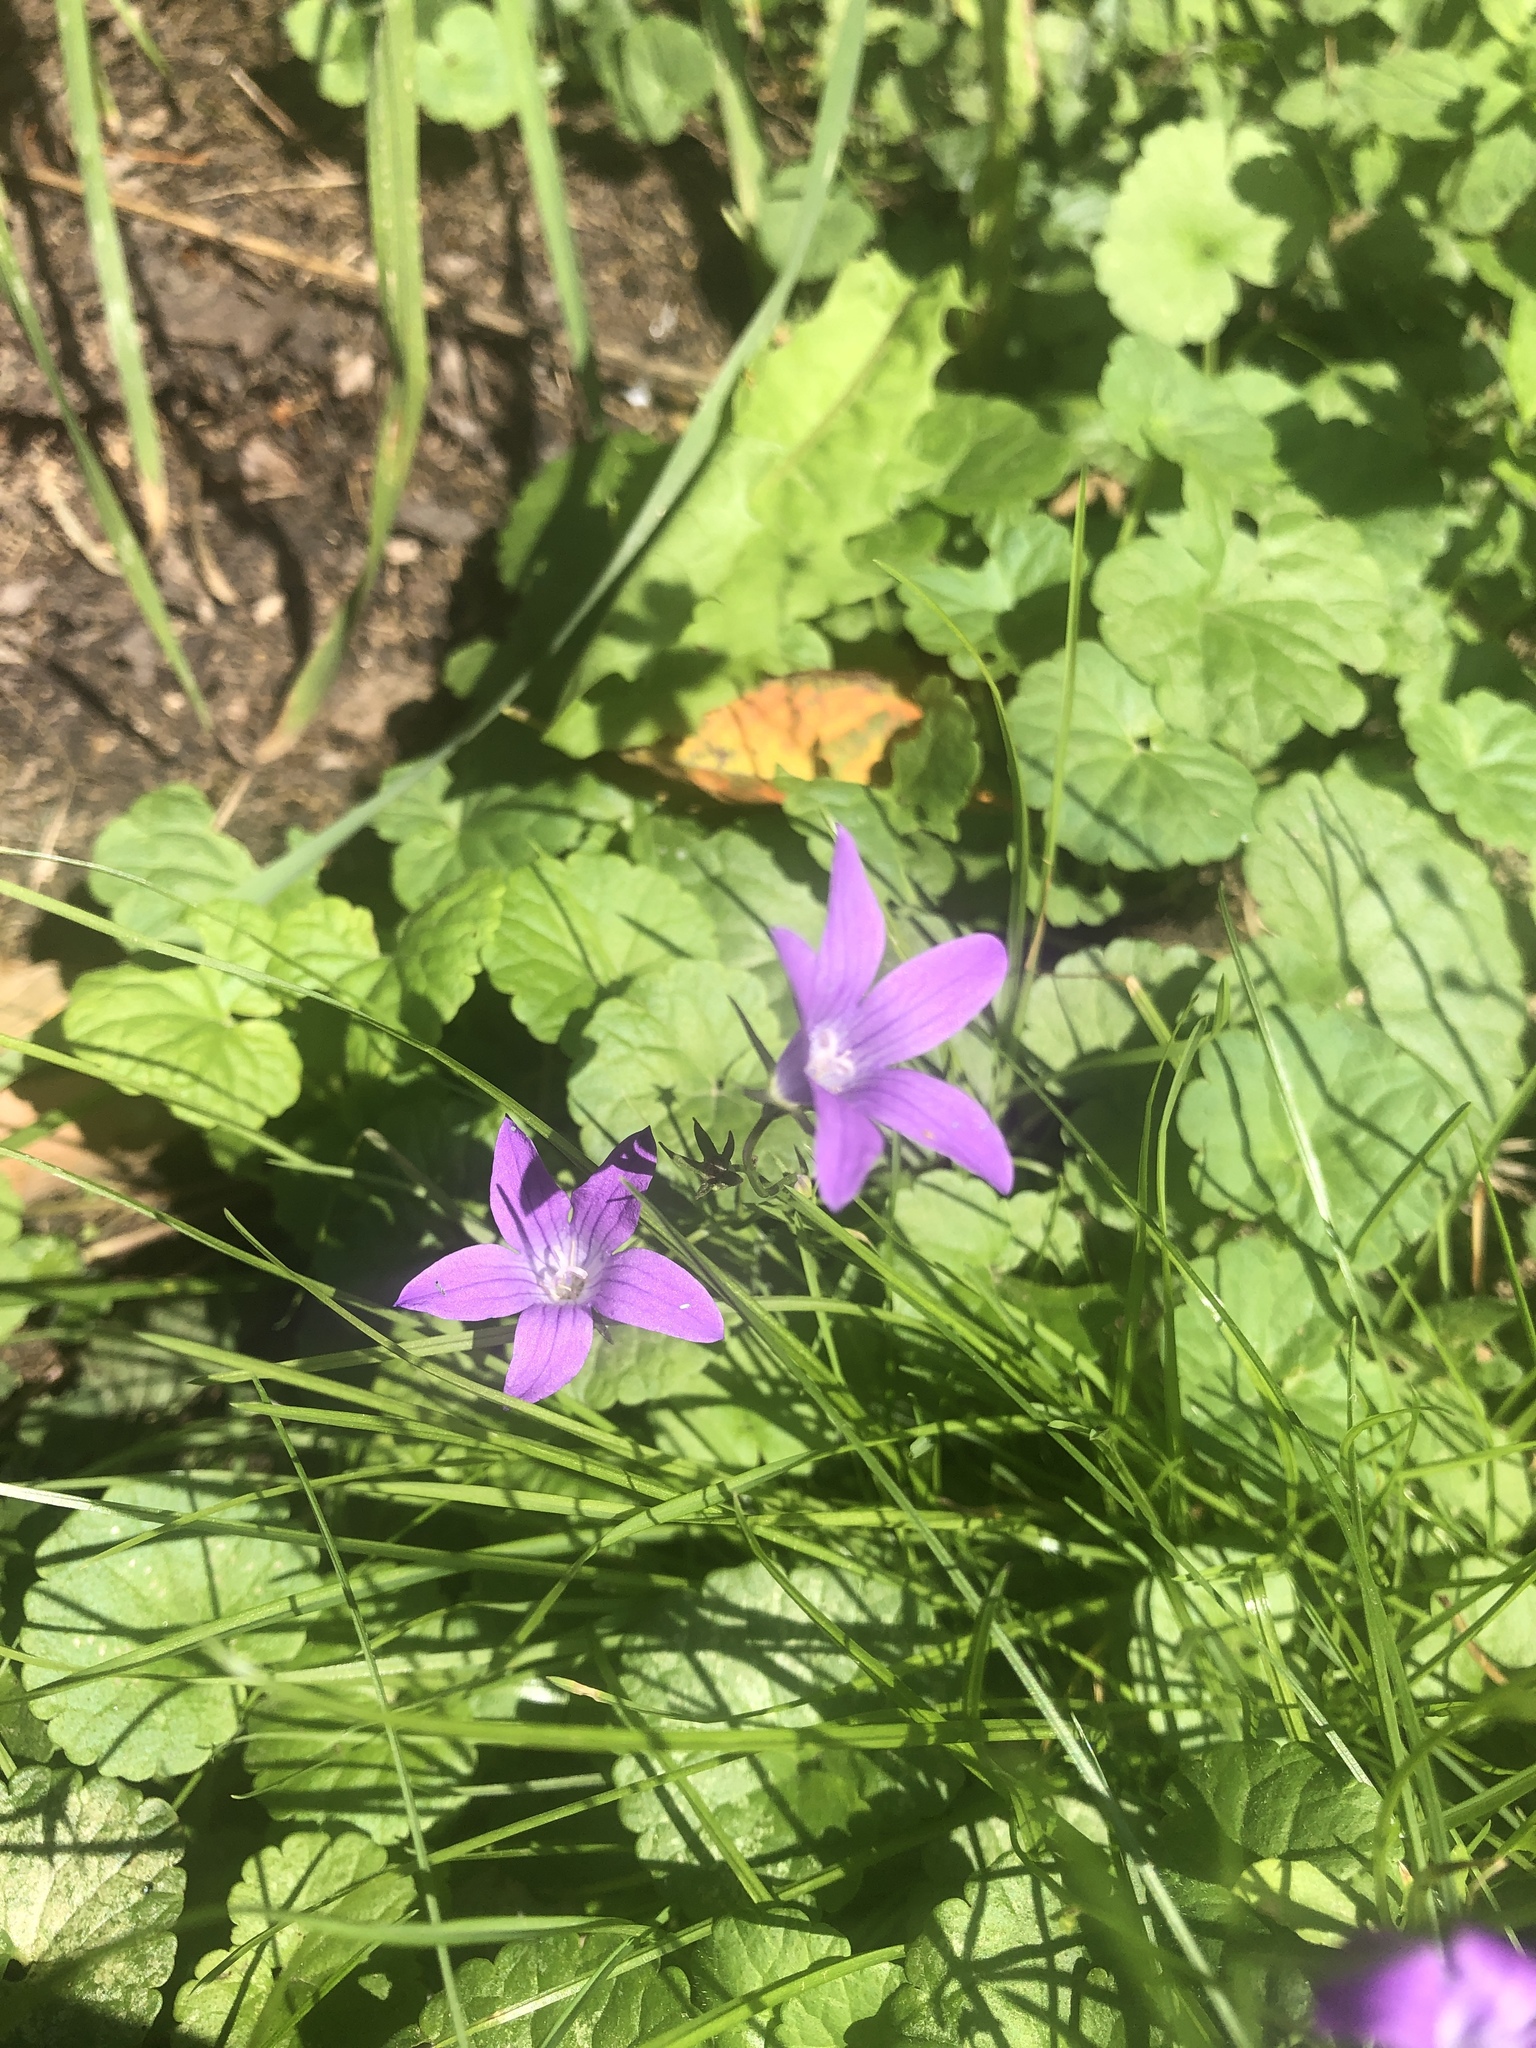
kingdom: Plantae
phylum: Tracheophyta
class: Magnoliopsida
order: Asterales
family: Campanulaceae
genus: Campanula
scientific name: Campanula patula
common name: Spreading bellflower
